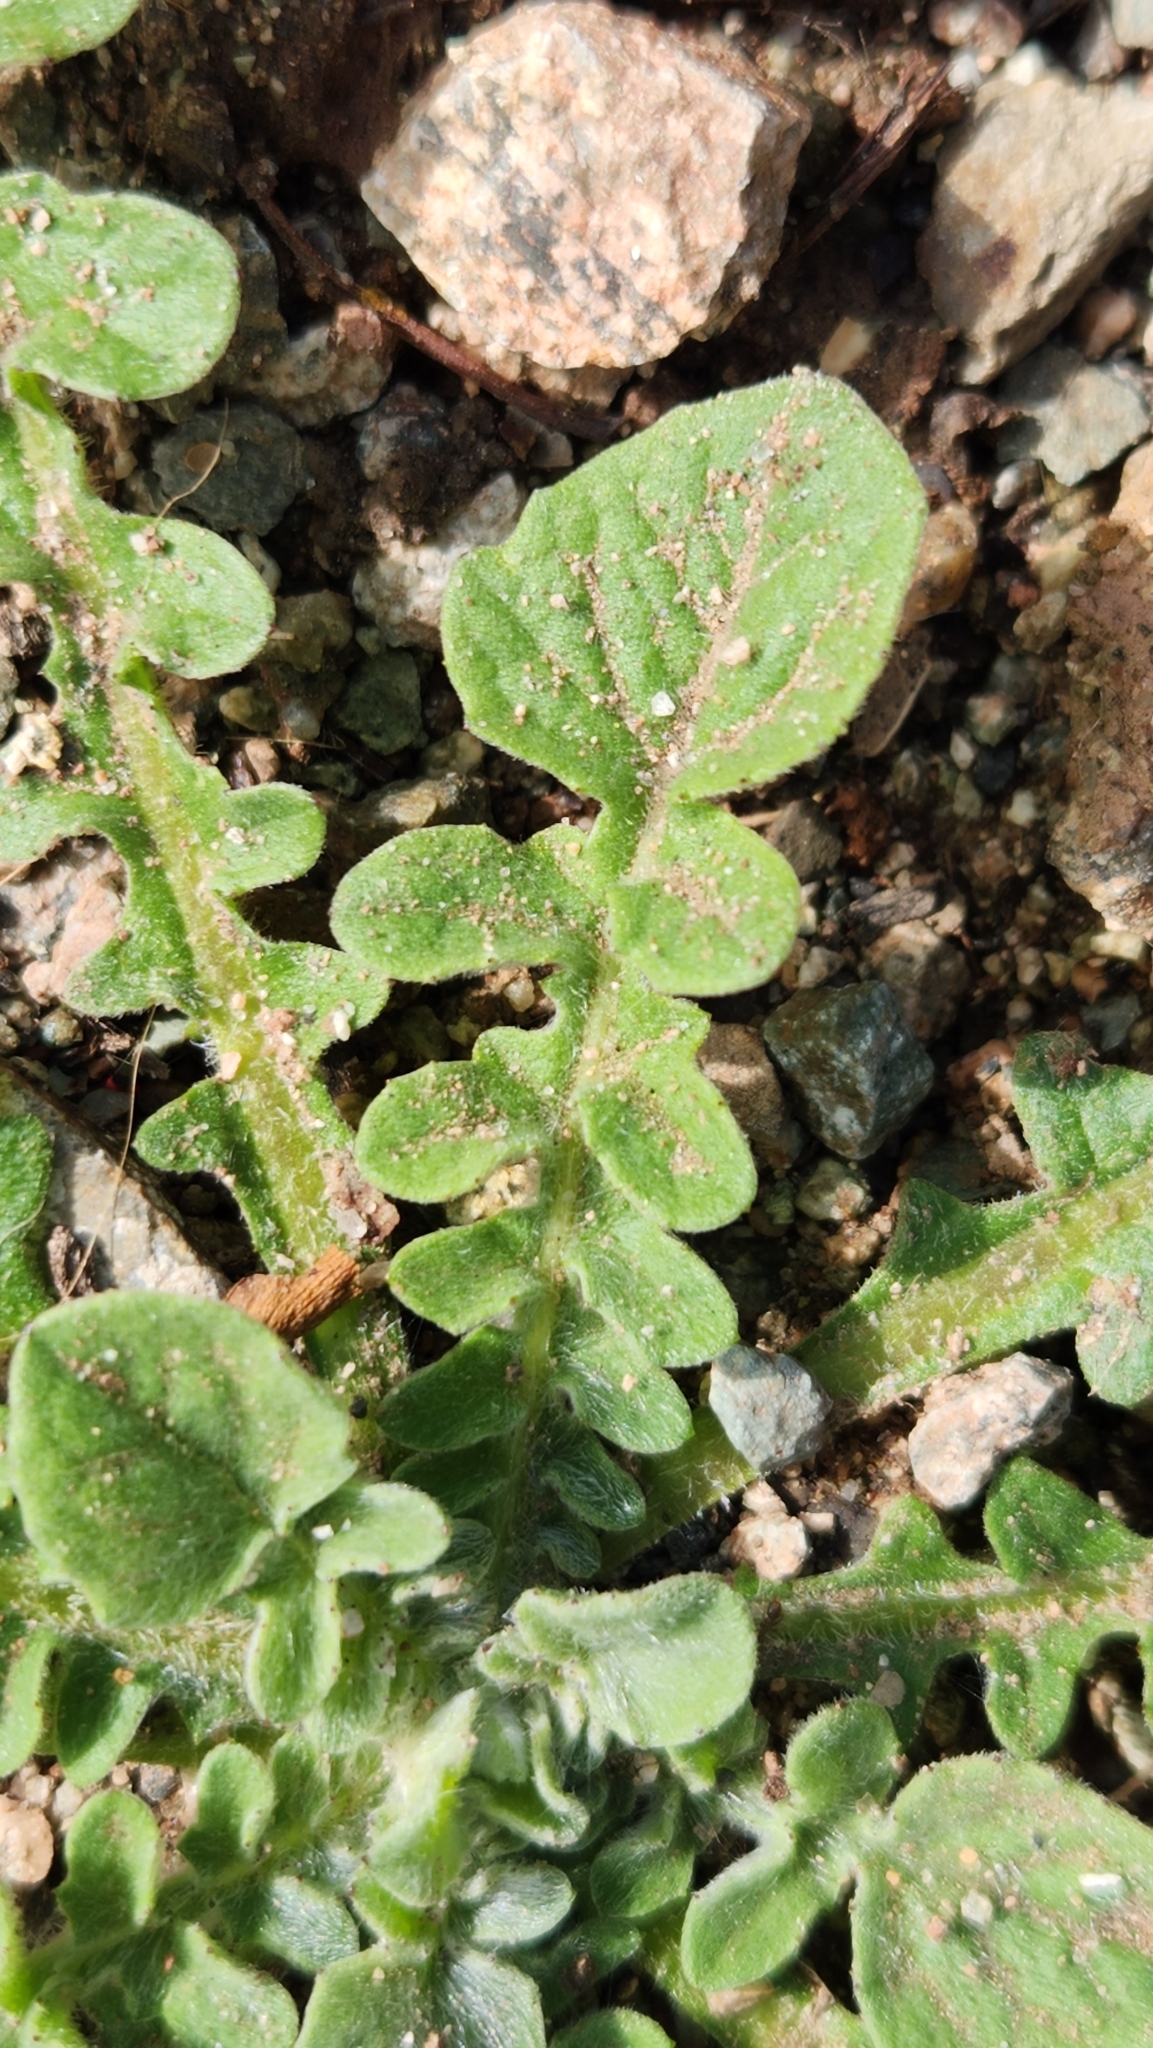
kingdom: Plantae
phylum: Tracheophyta
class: Magnoliopsida
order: Asterales
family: Asteraceae
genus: Centaurea
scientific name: Centaurea melitensis
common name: Maltese star-thistle
